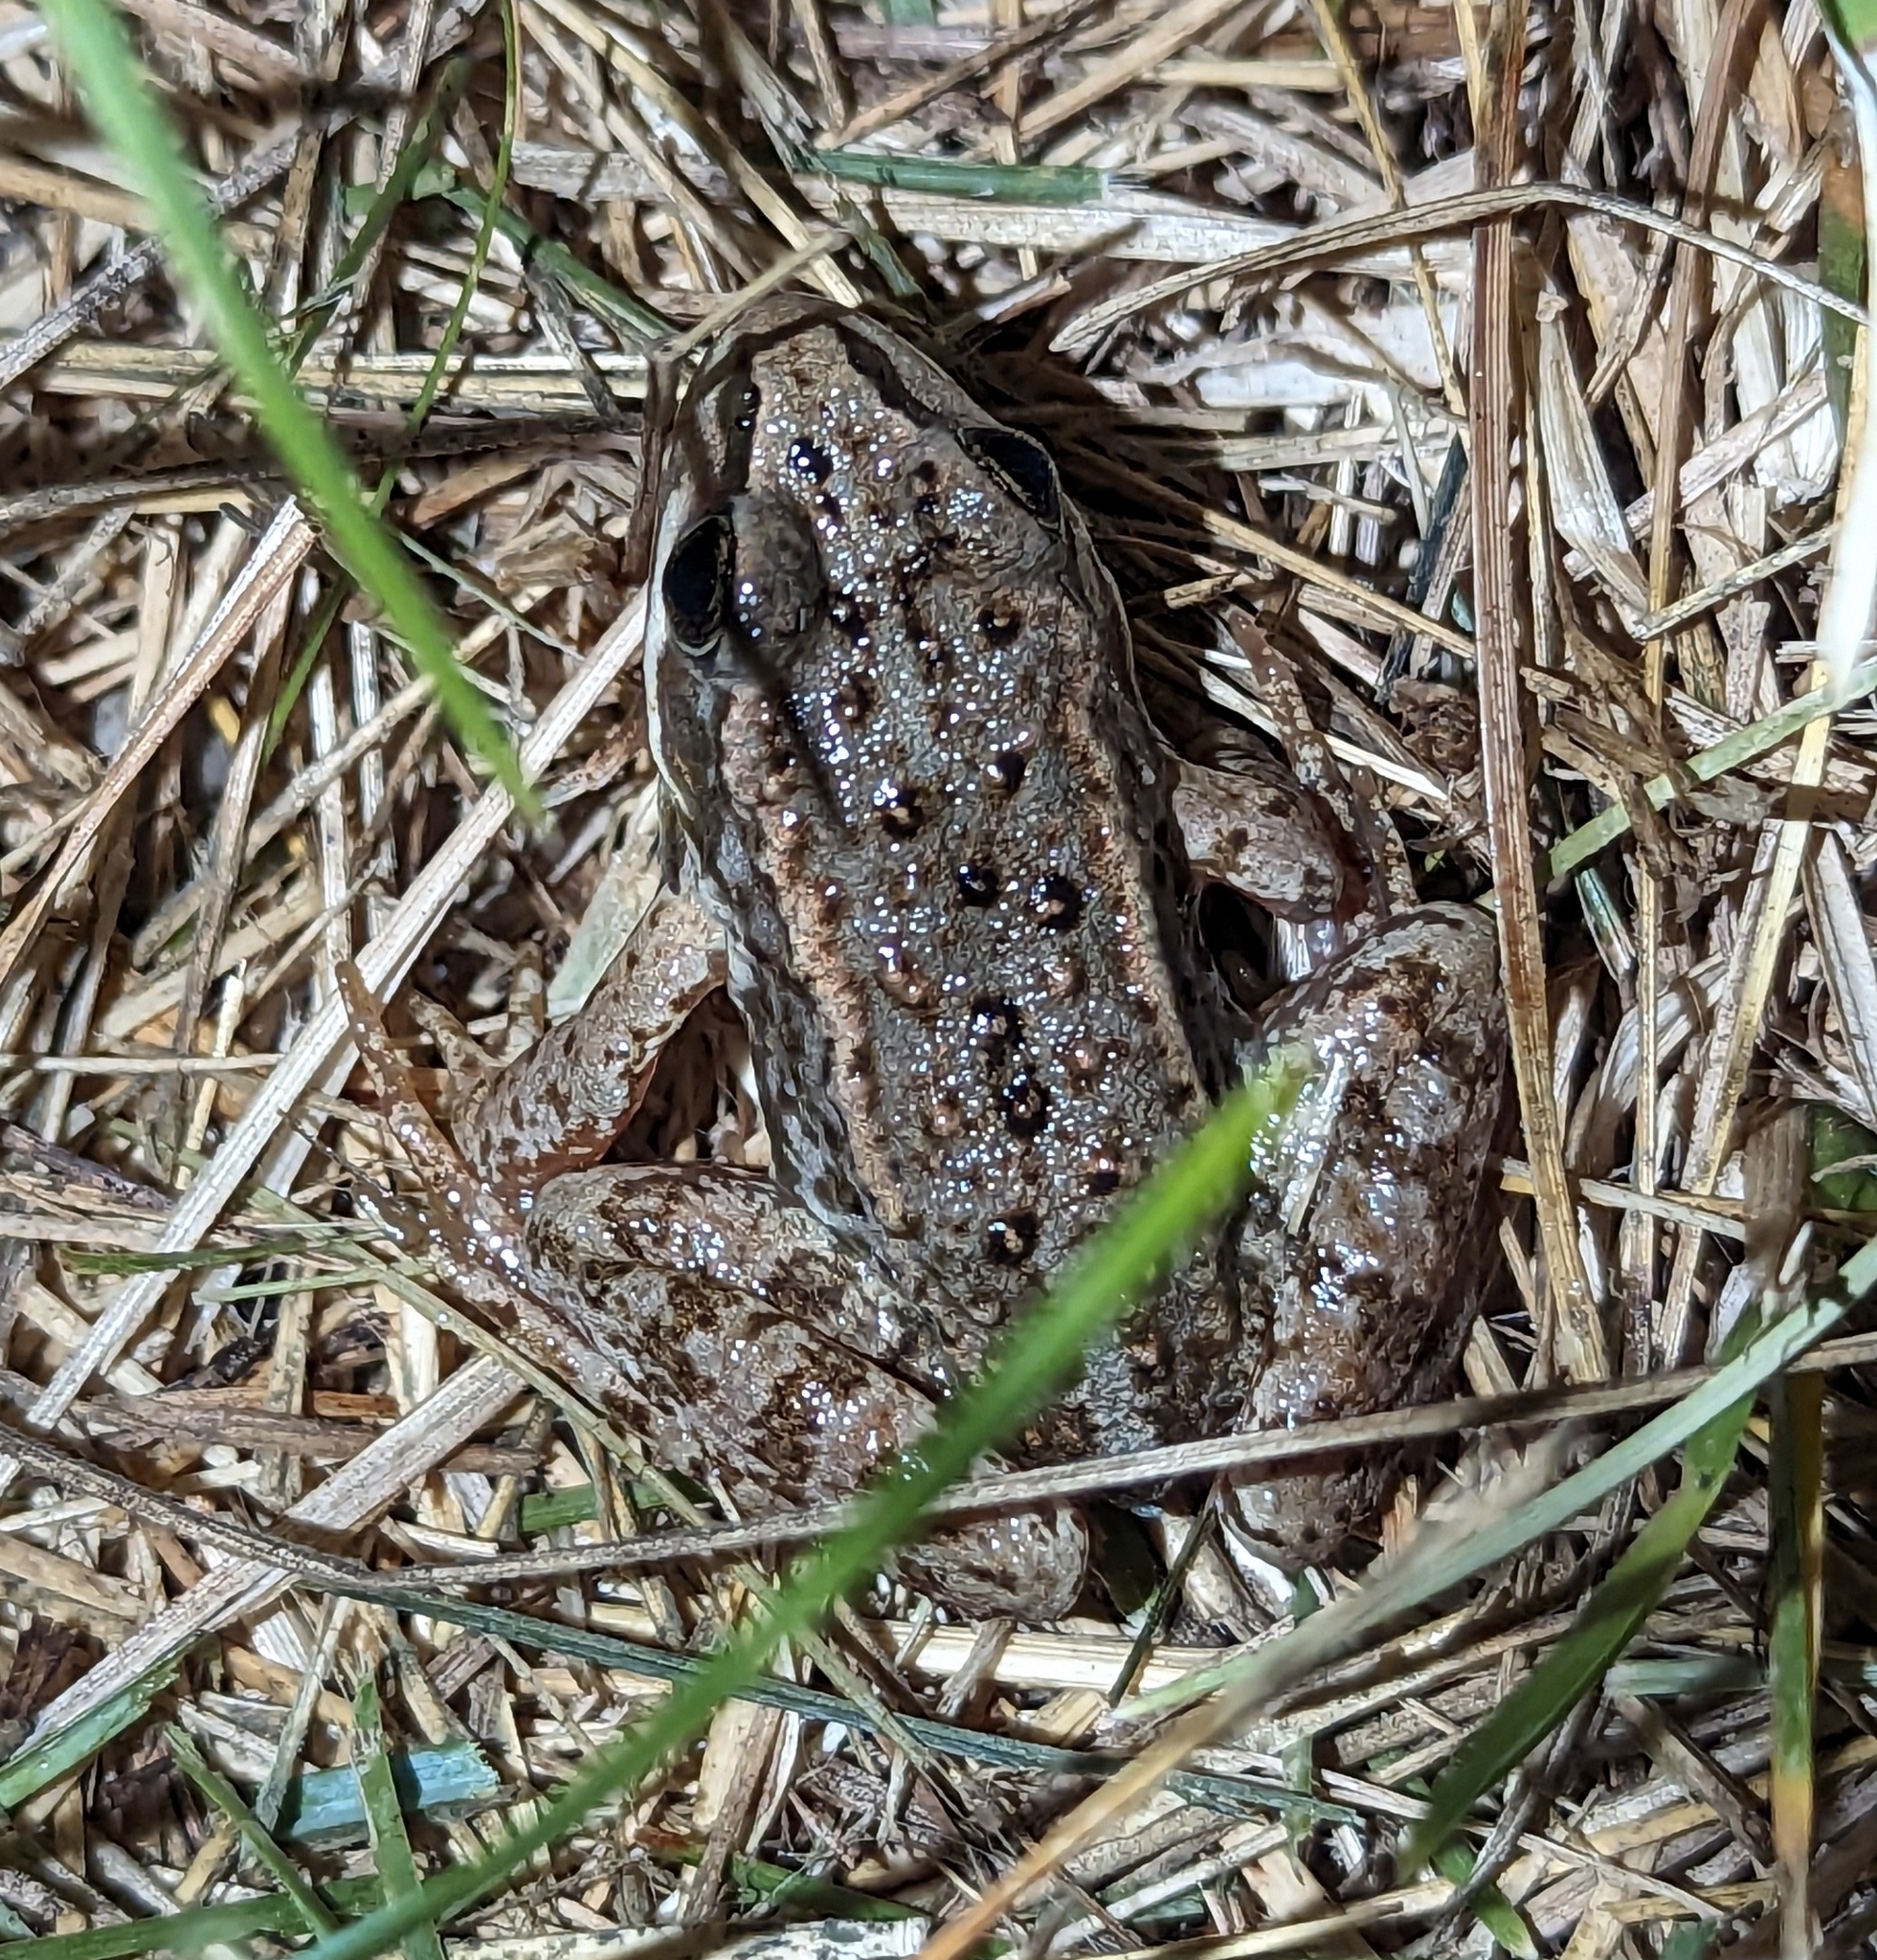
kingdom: Animalia
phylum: Chordata
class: Amphibia
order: Anura
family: Ranidae
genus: Rana
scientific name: Rana luteiventris
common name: Columbia spotted frog
